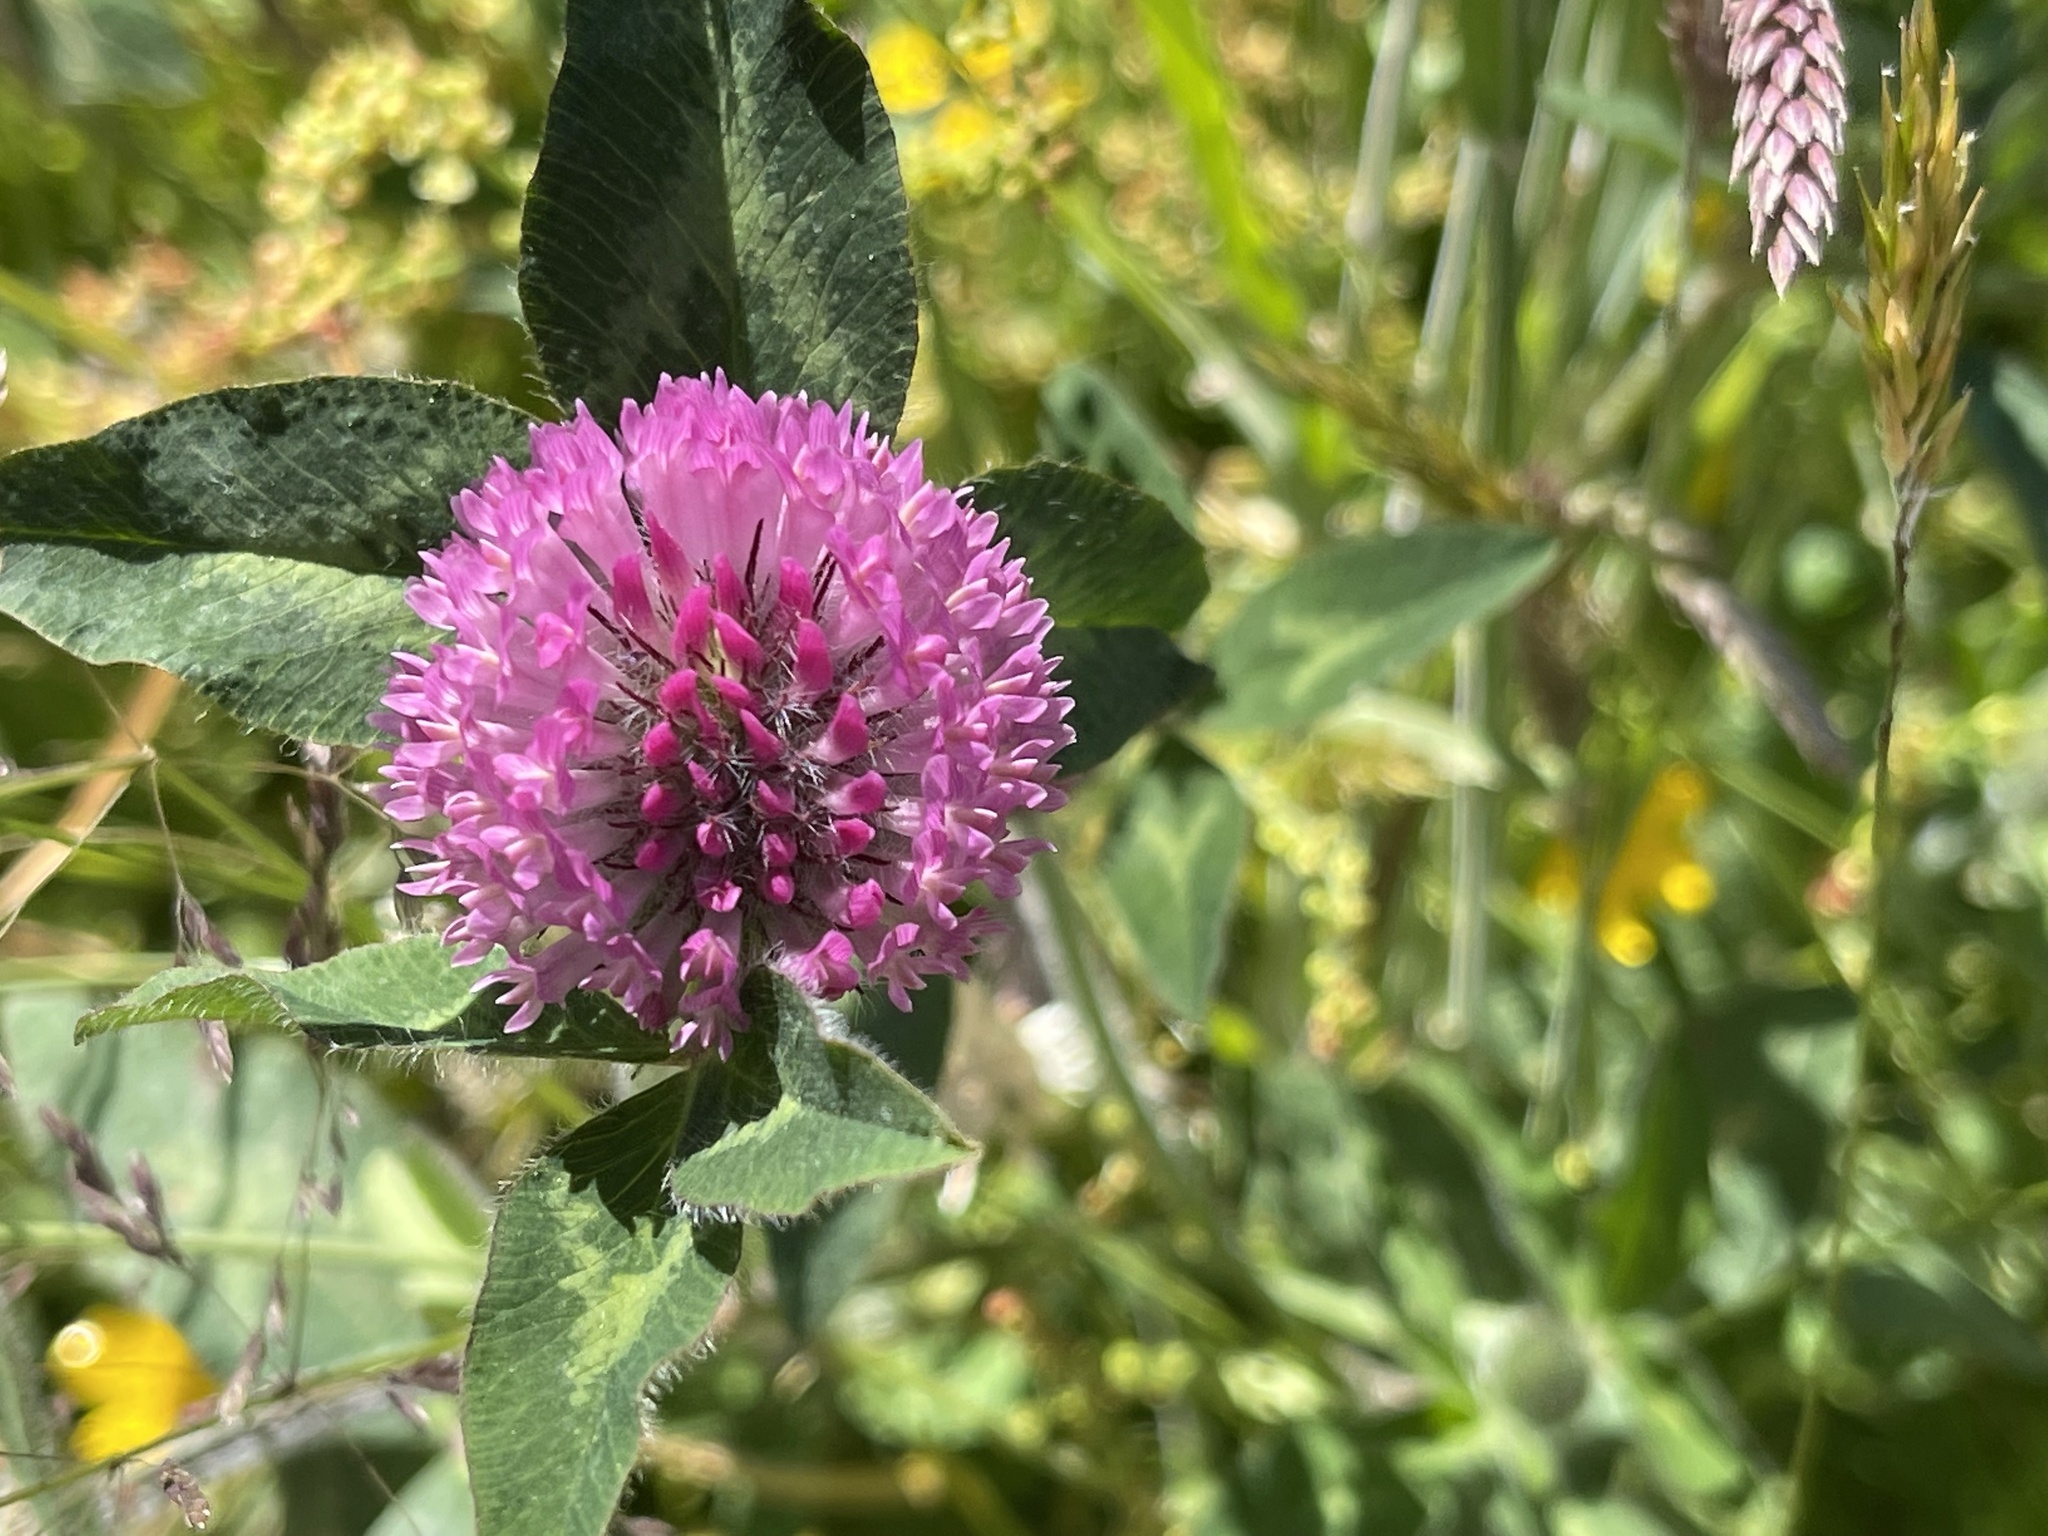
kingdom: Plantae
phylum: Tracheophyta
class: Magnoliopsida
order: Fabales
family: Fabaceae
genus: Trifolium
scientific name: Trifolium pratense
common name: Red clover
